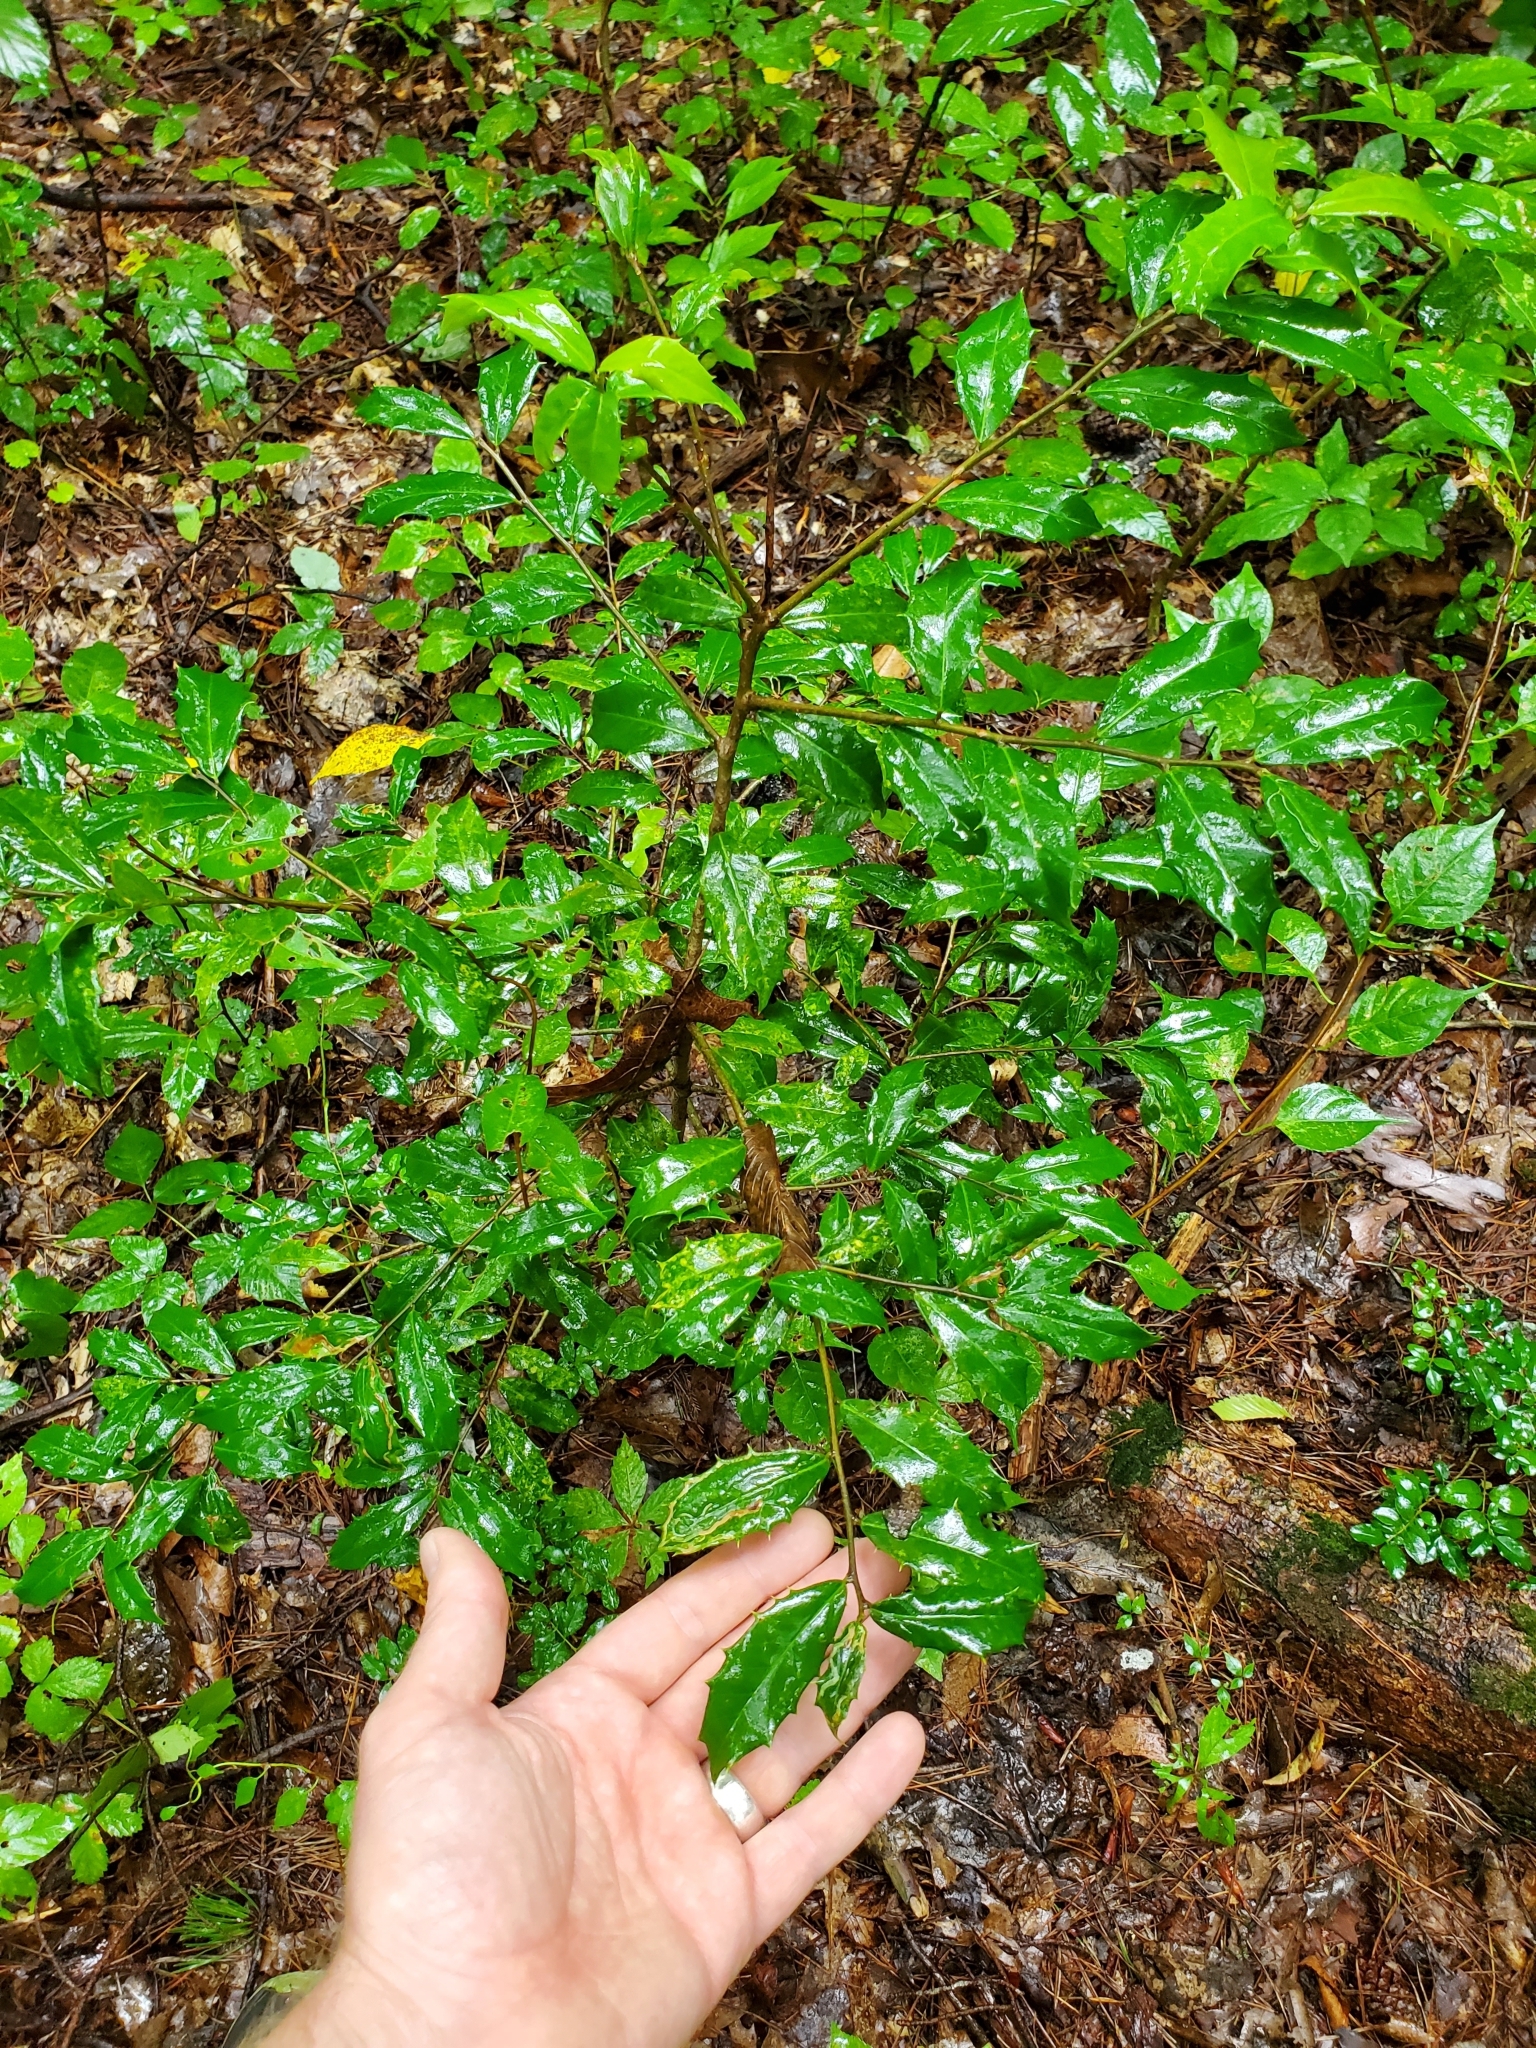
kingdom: Plantae
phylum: Tracheophyta
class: Magnoliopsida
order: Aquifoliales
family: Aquifoliaceae
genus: Ilex
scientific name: Ilex opaca
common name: American holly
